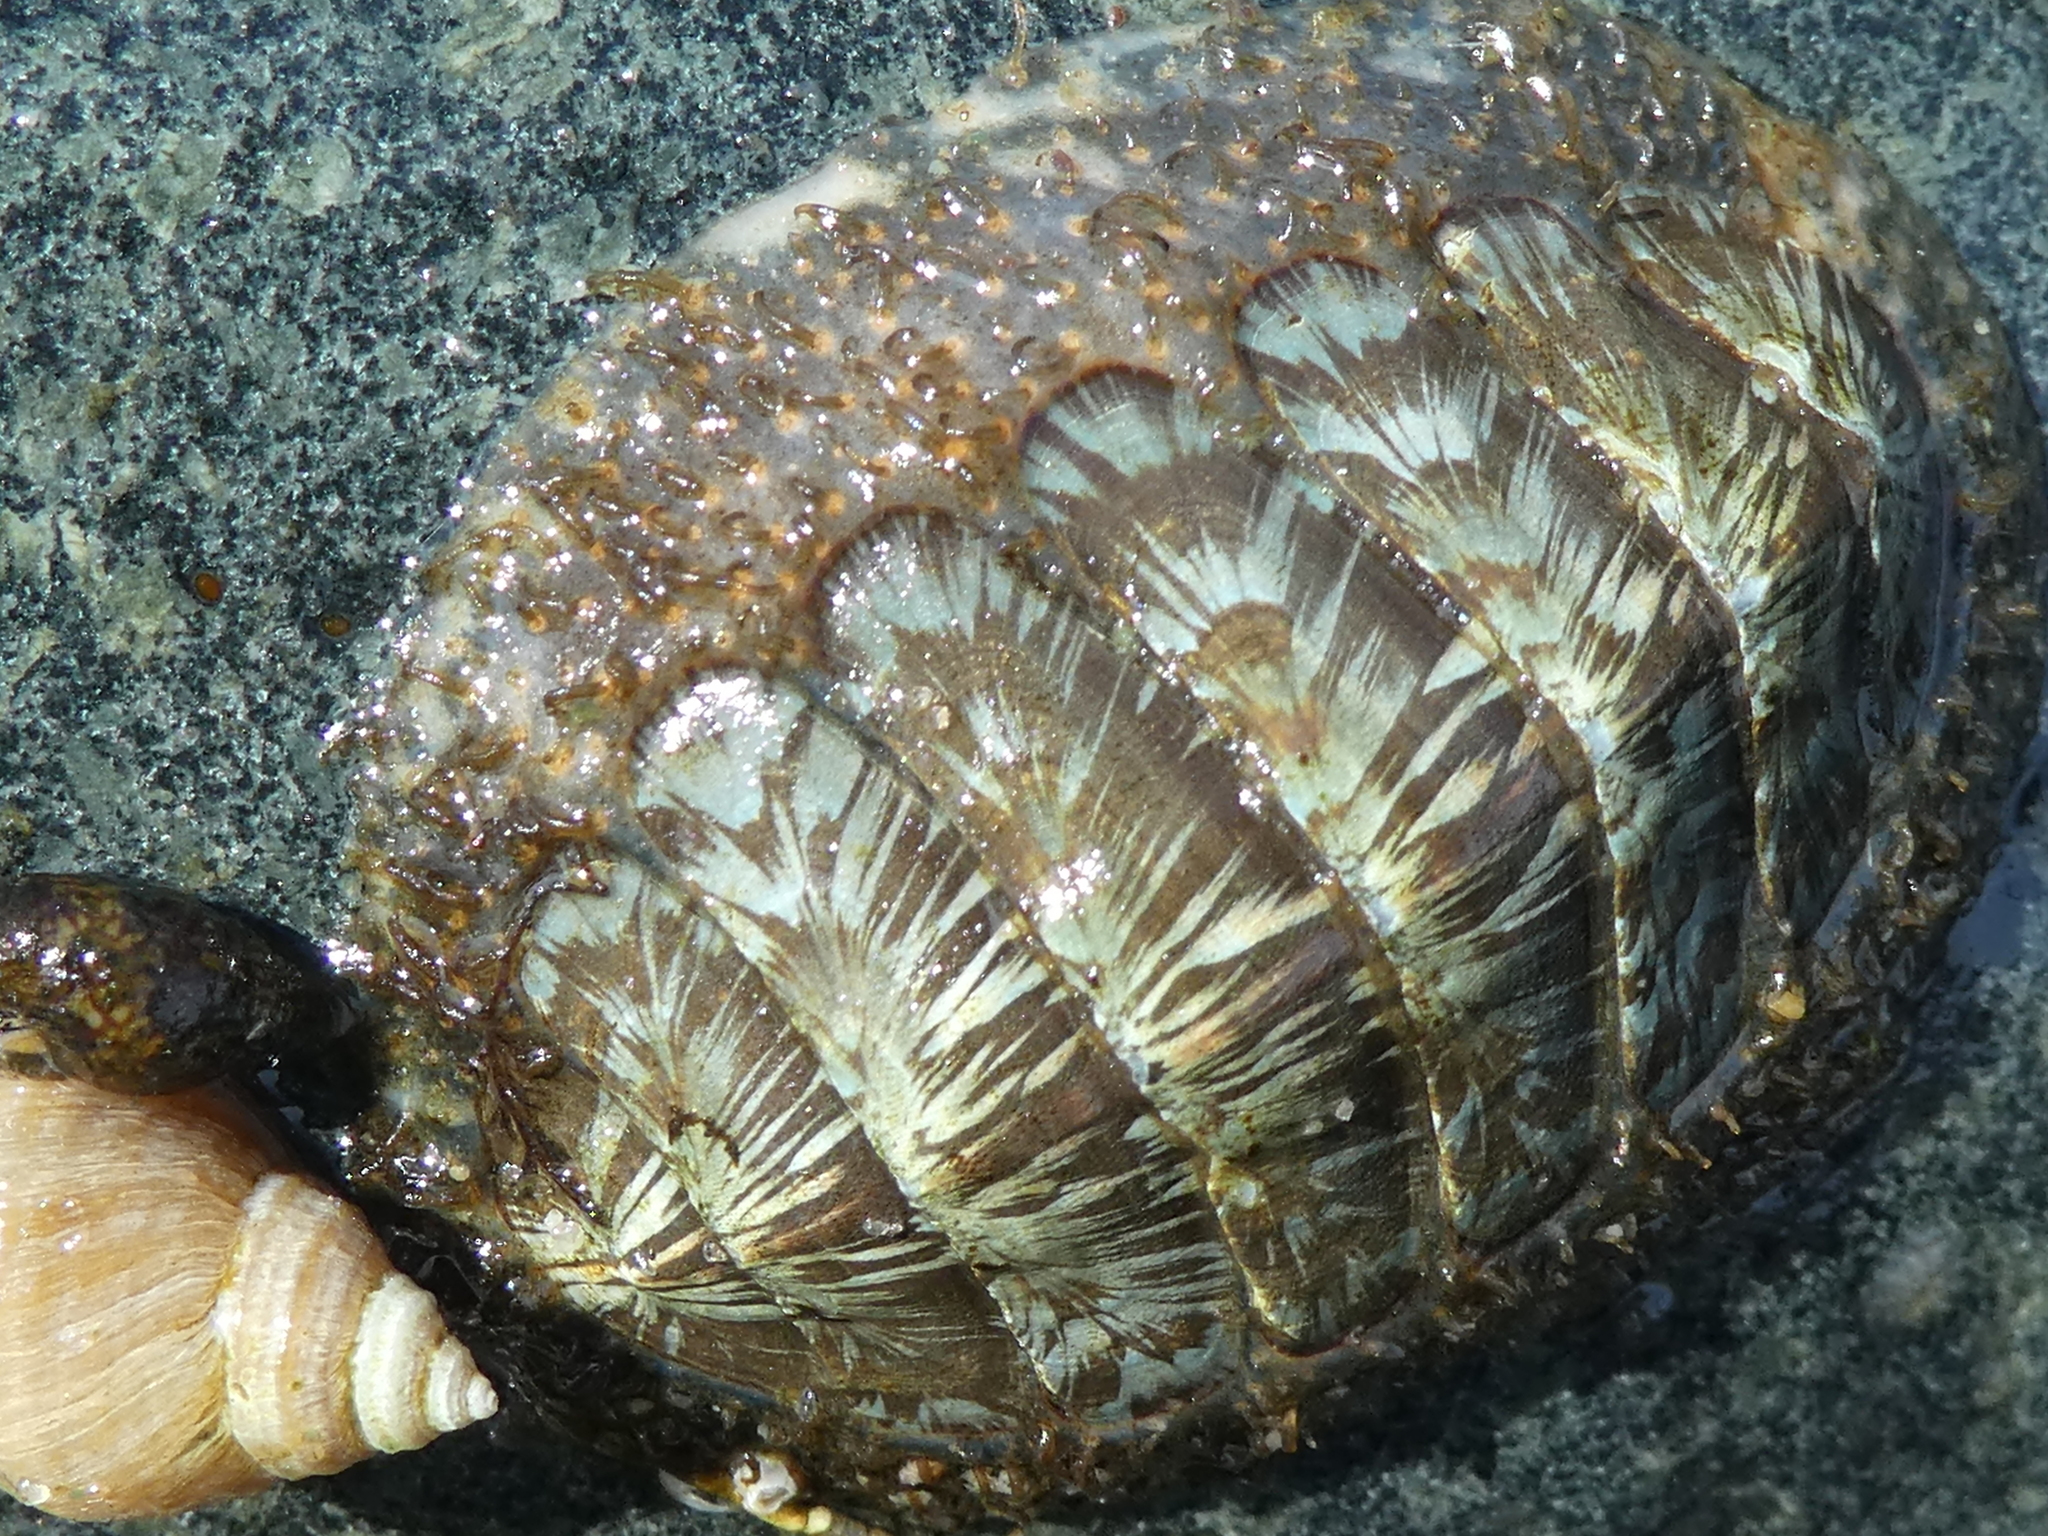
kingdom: Animalia
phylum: Mollusca
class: Polyplacophora
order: Chitonida
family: Mopaliidae
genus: Mopalia
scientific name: Mopalia lignosa
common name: Woody chiton
